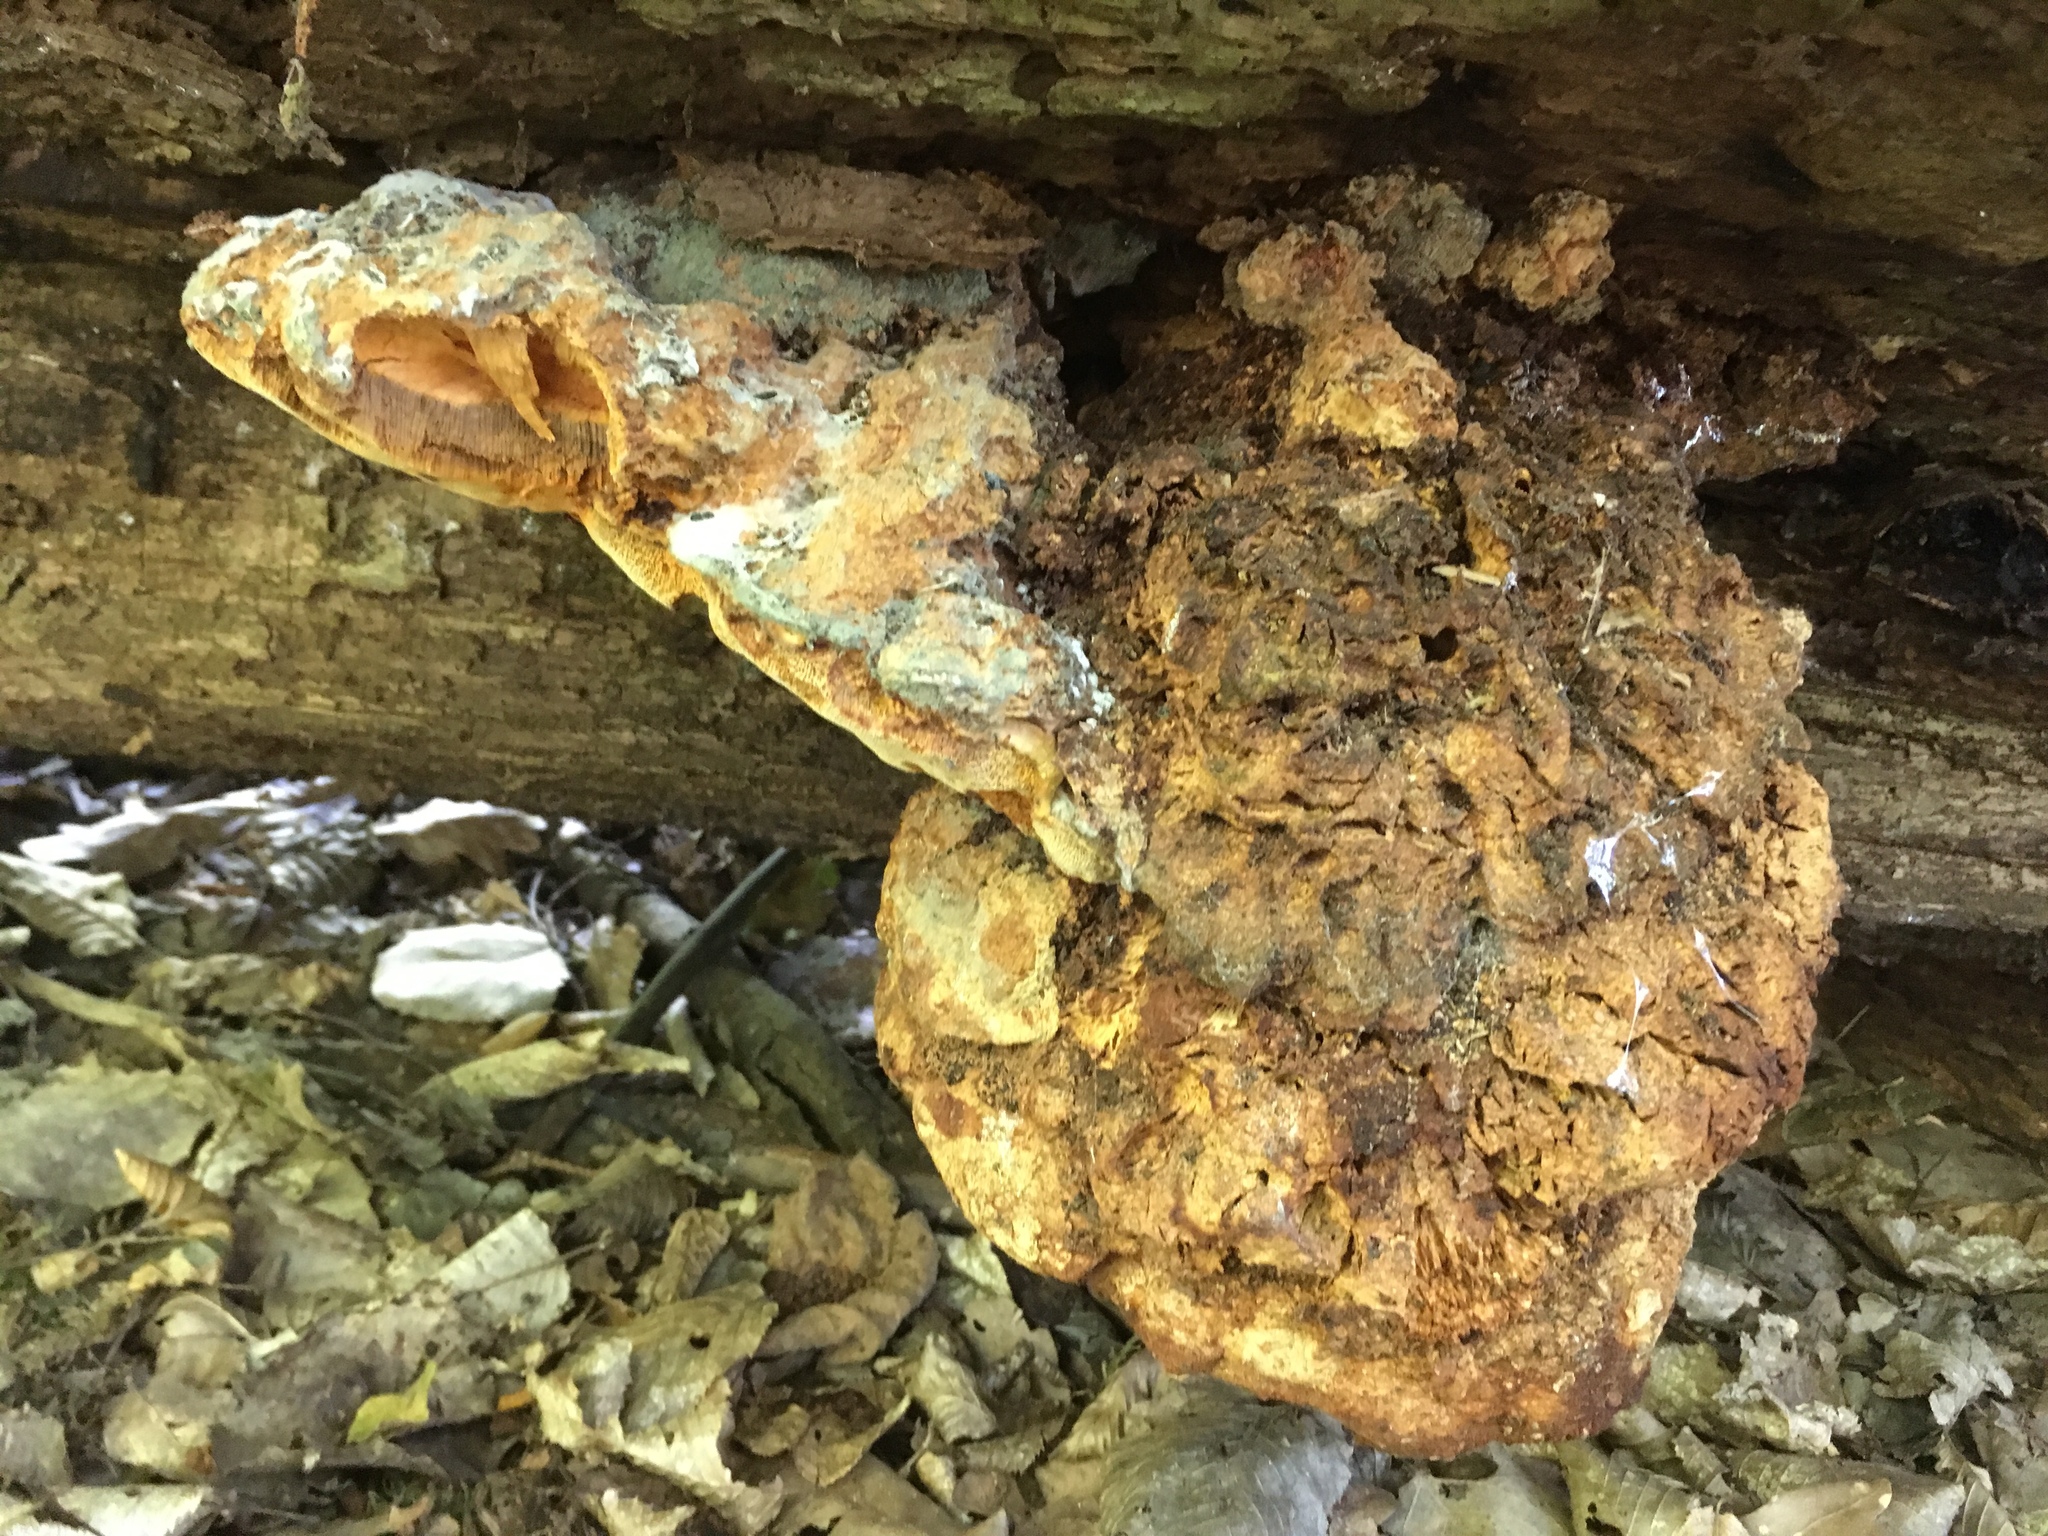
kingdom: Fungi
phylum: Basidiomycota
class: Agaricomycetes
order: Polyporales
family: Phanerochaetaceae
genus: Hapalopilus
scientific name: Hapalopilus croceus
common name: Orange polypore
